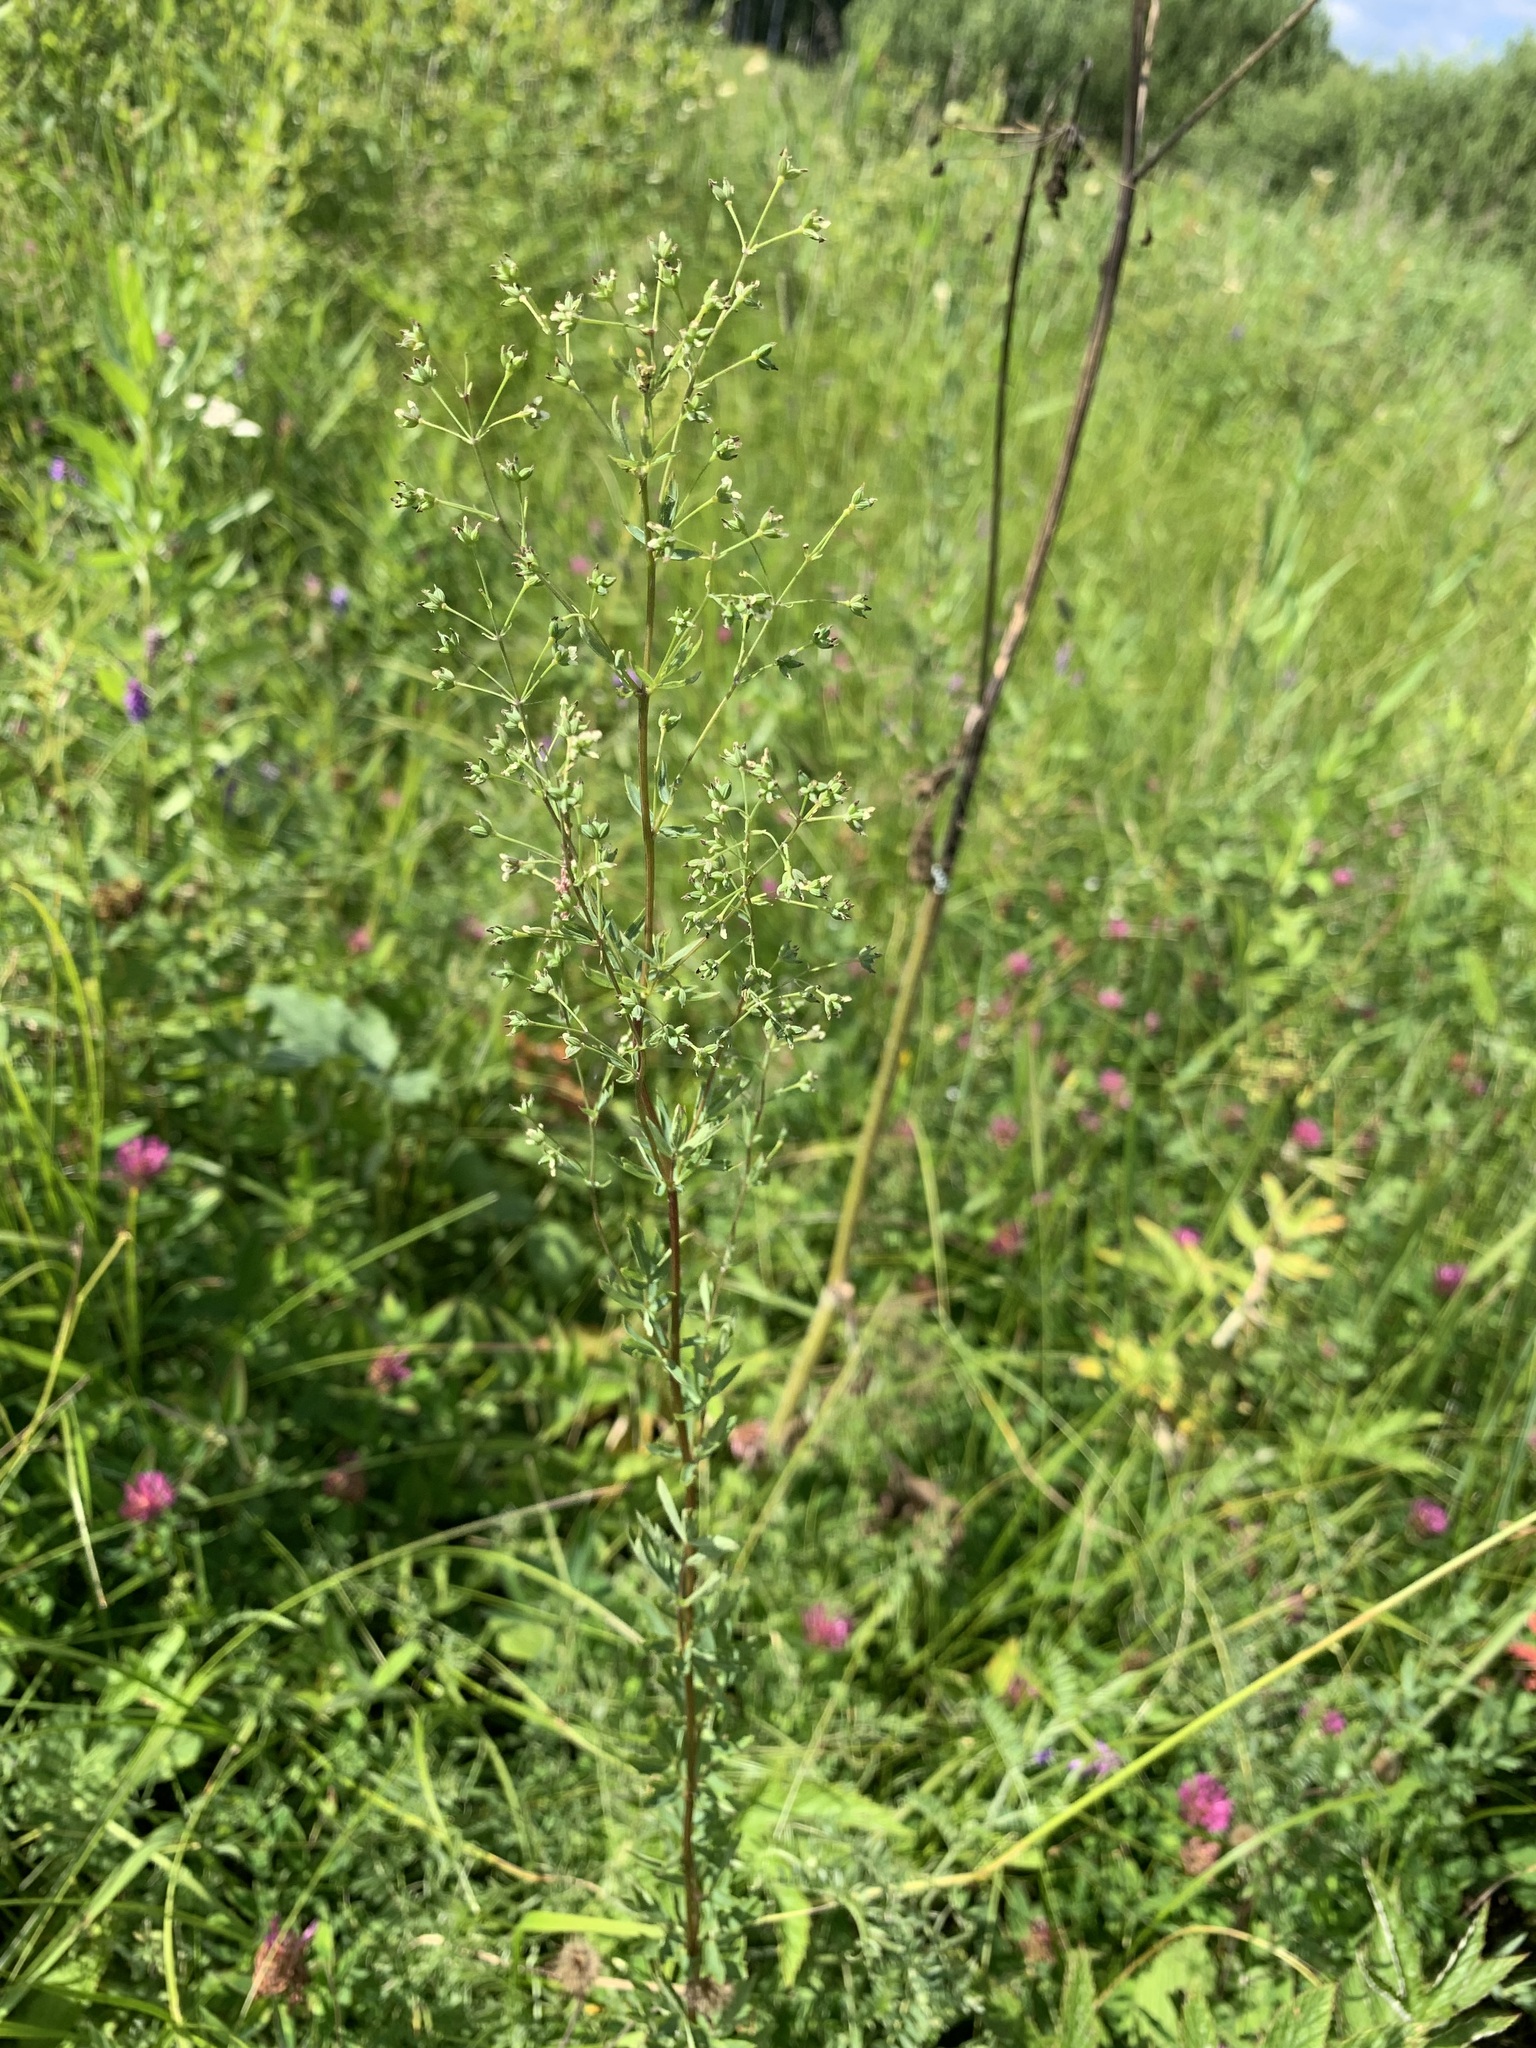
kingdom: Plantae
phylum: Tracheophyta
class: Magnoliopsida
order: Ranunculales
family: Ranunculaceae
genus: Thalictrum
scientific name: Thalictrum simplex
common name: Small meadow-rue
